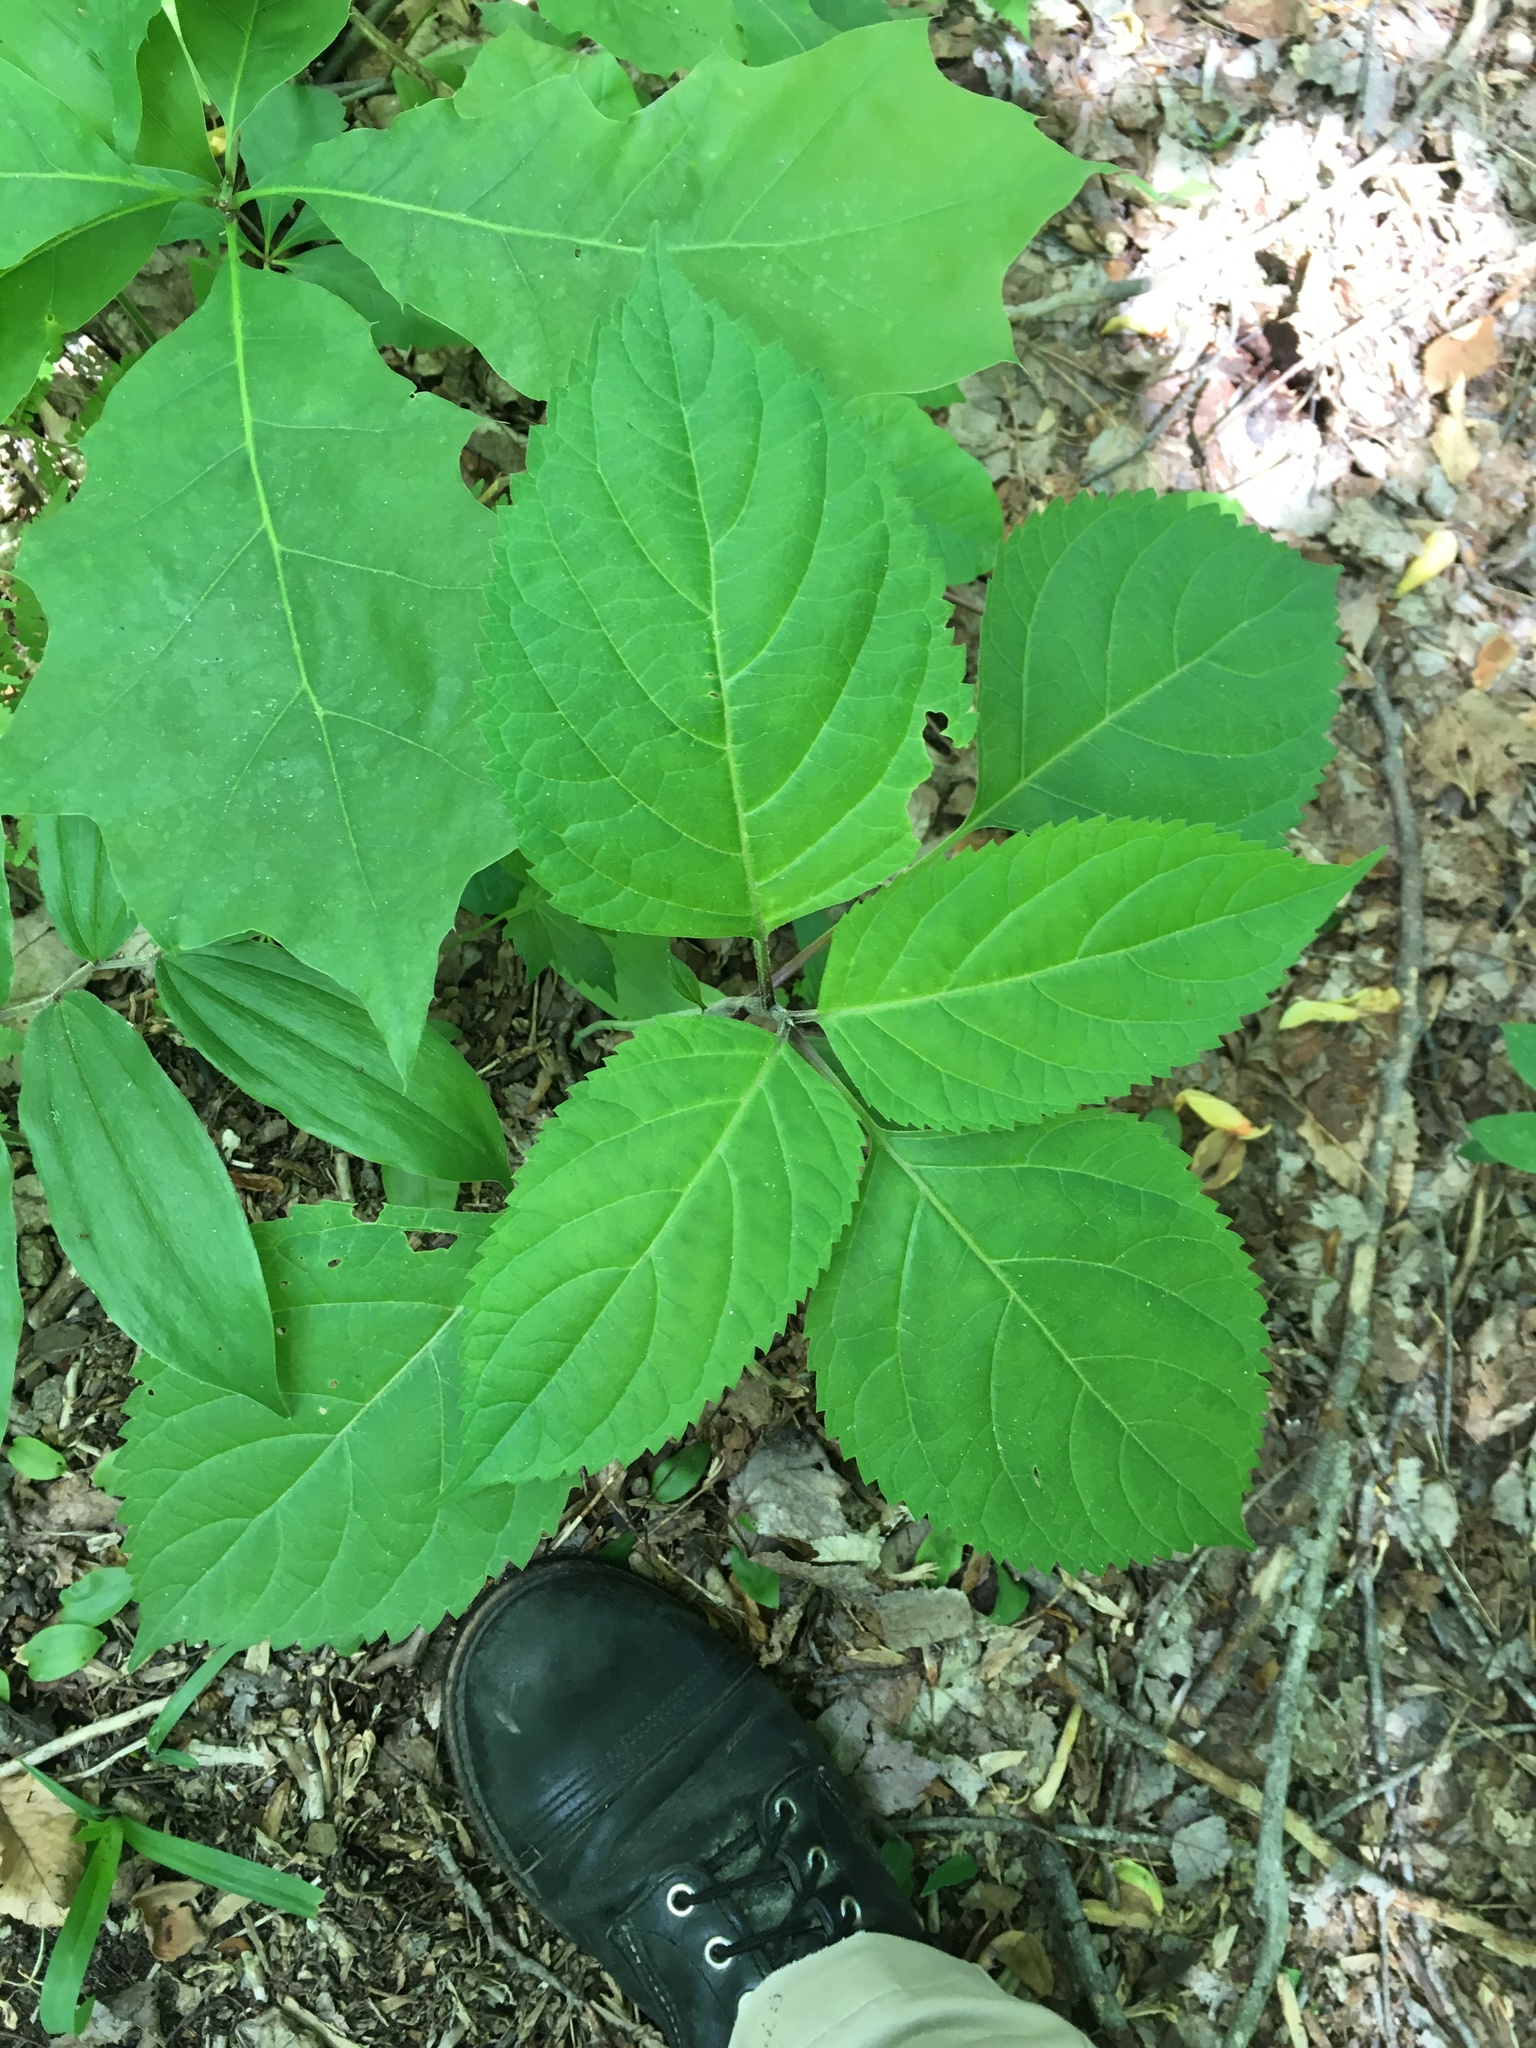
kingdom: Plantae
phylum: Tracheophyta
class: Magnoliopsida
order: Lamiales
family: Lamiaceae
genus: Collinsonia
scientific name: Collinsonia canadensis
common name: Northern horsebalm
